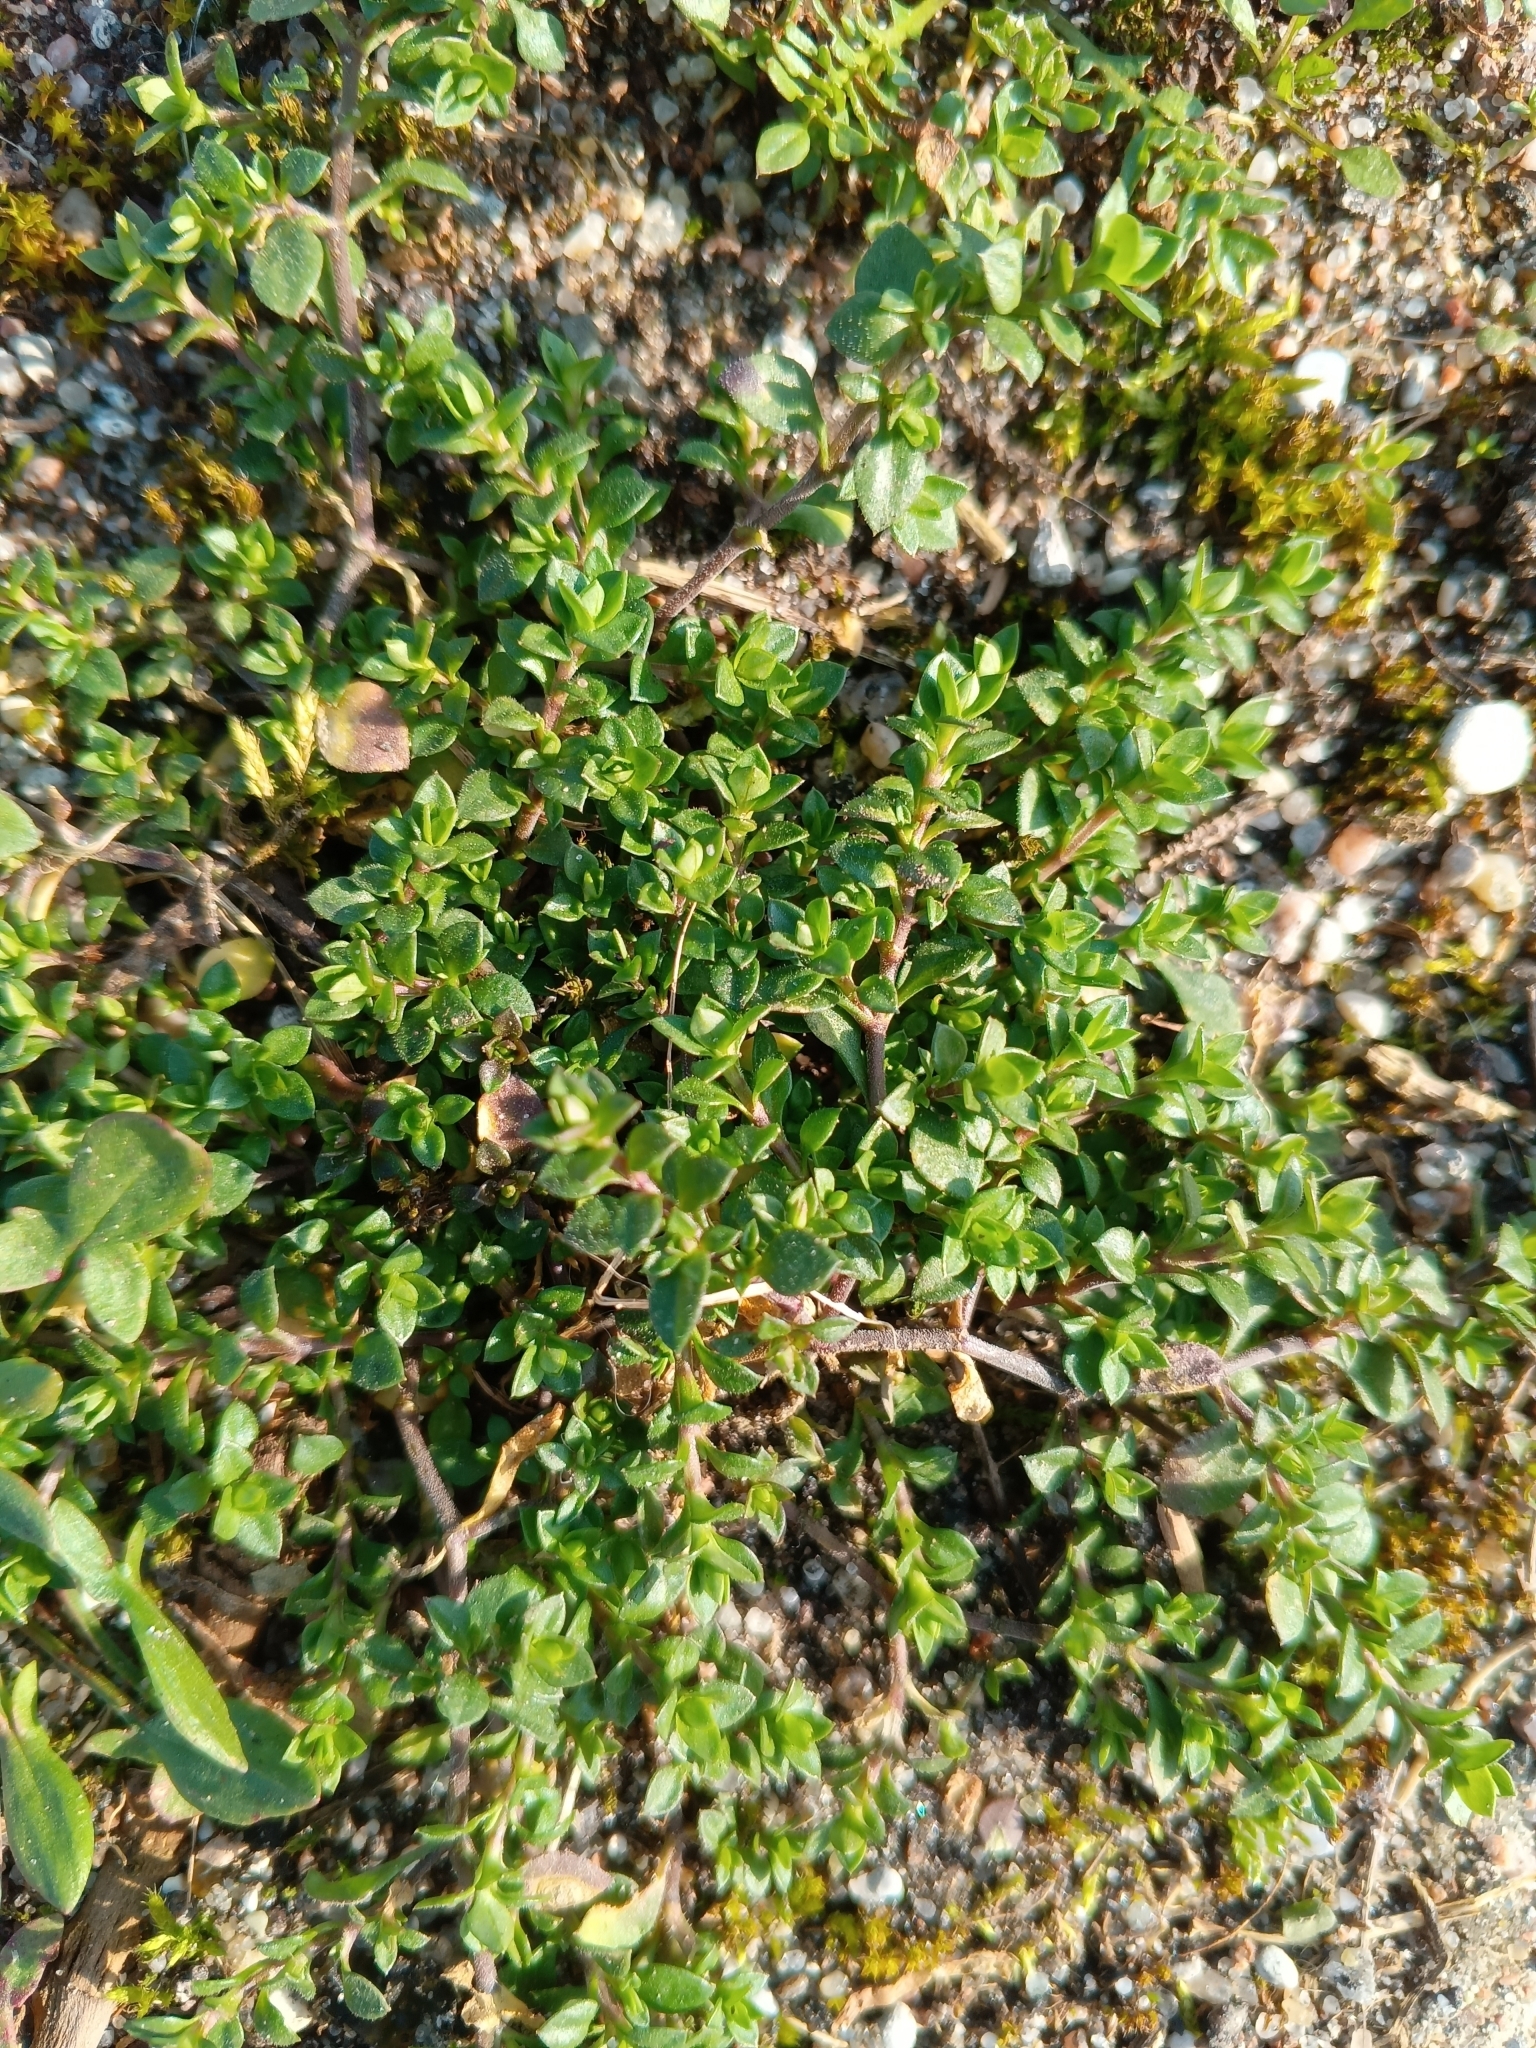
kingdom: Plantae
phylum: Tracheophyta
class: Magnoliopsida
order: Caryophyllales
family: Caryophyllaceae
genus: Arenaria
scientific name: Arenaria serpyllifolia
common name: Thyme-leaved sandwort
